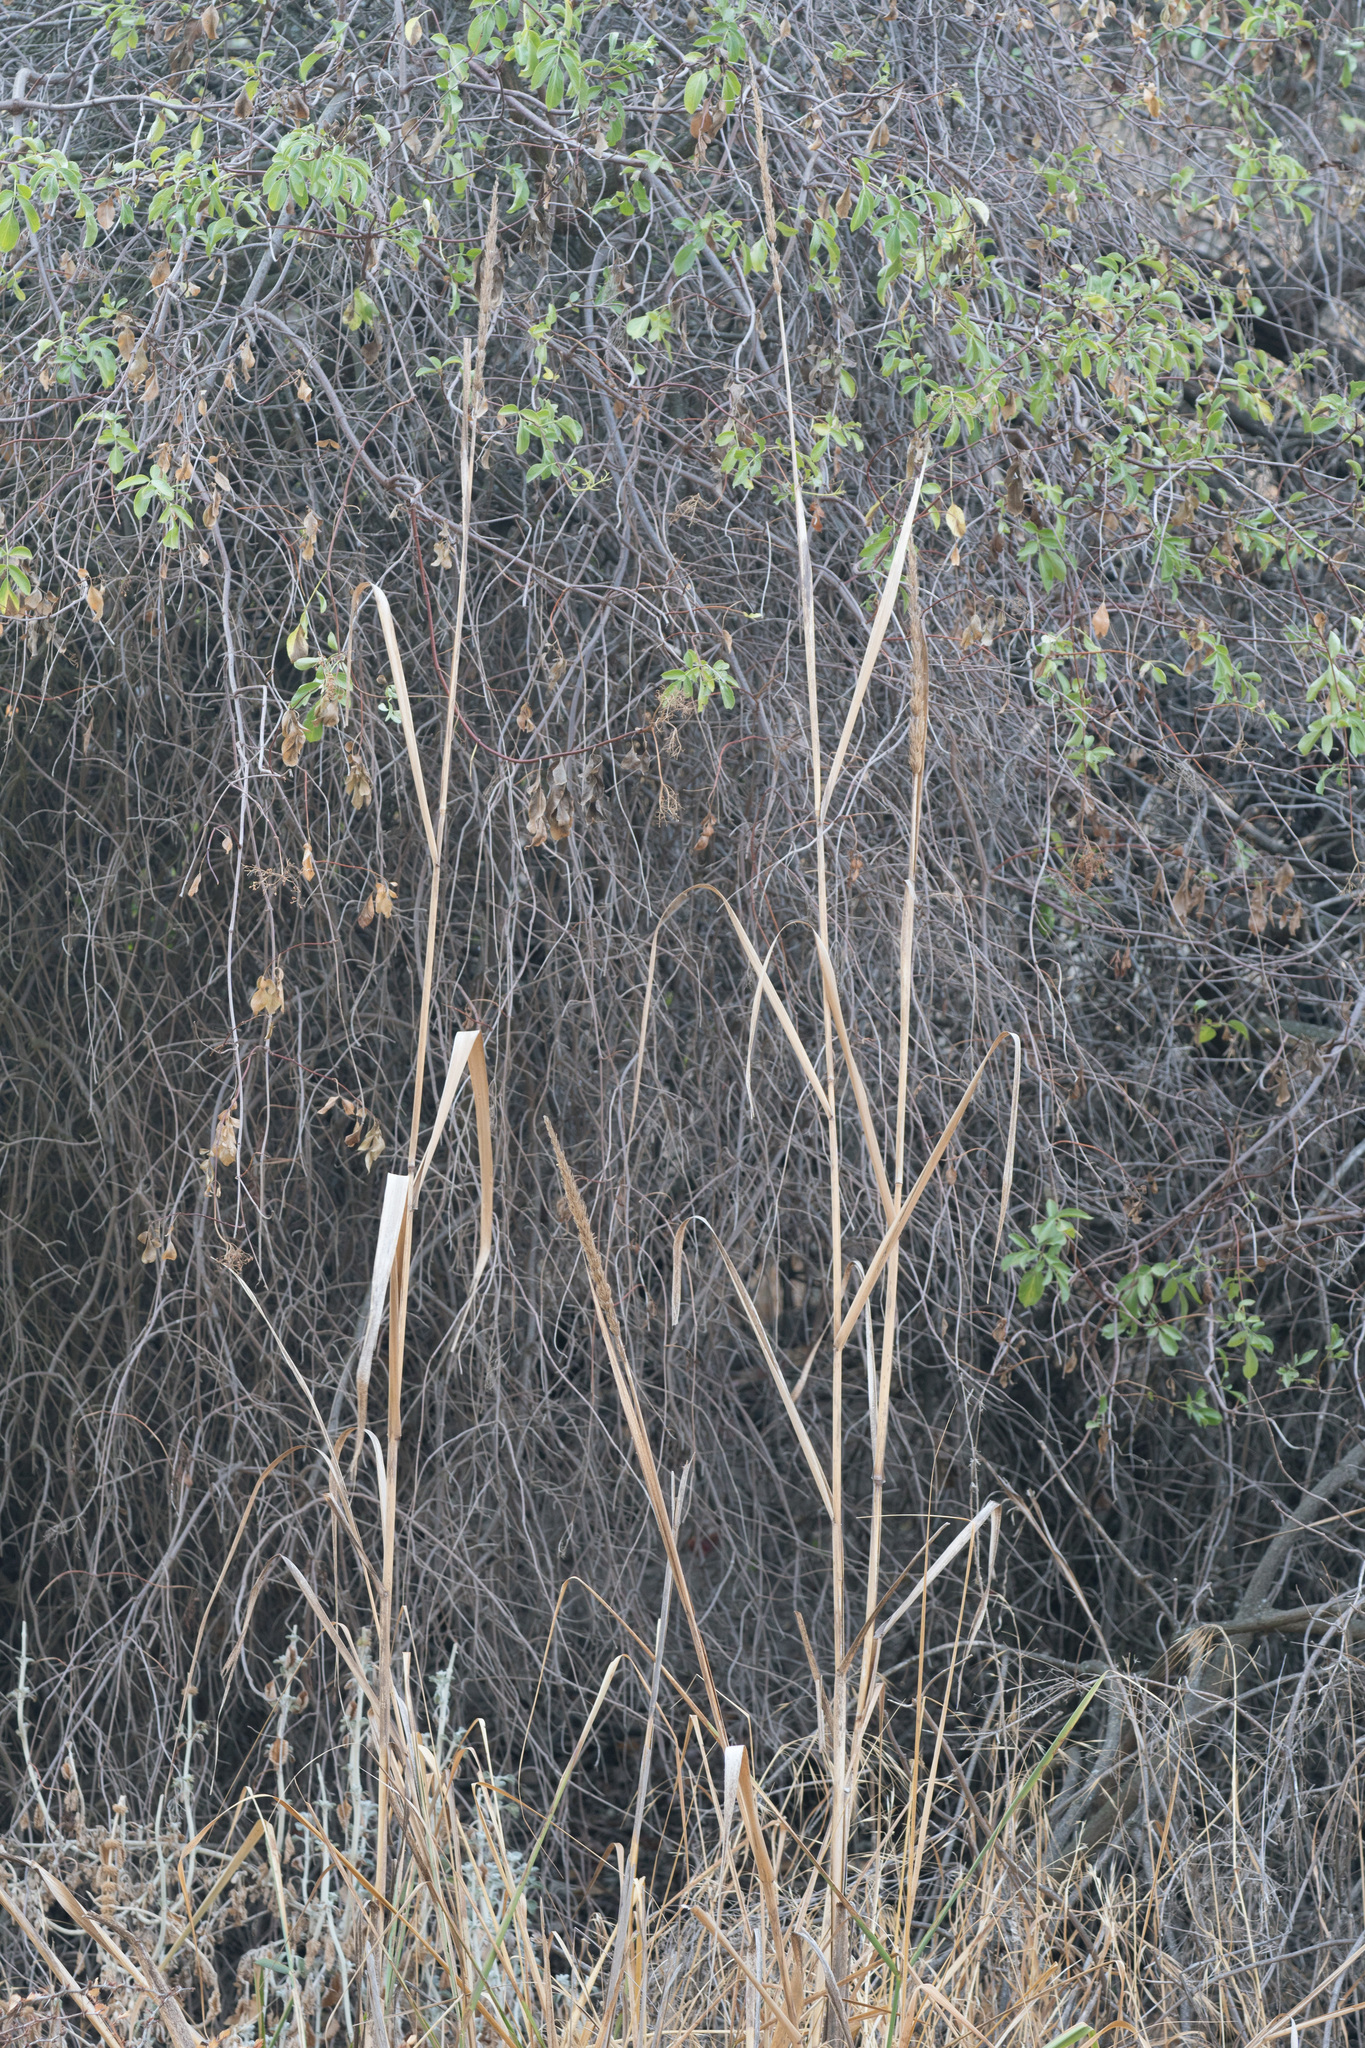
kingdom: Plantae
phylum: Tracheophyta
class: Liliopsida
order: Poales
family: Poaceae
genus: Leymus
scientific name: Leymus condensatus
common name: Giant wild rye
